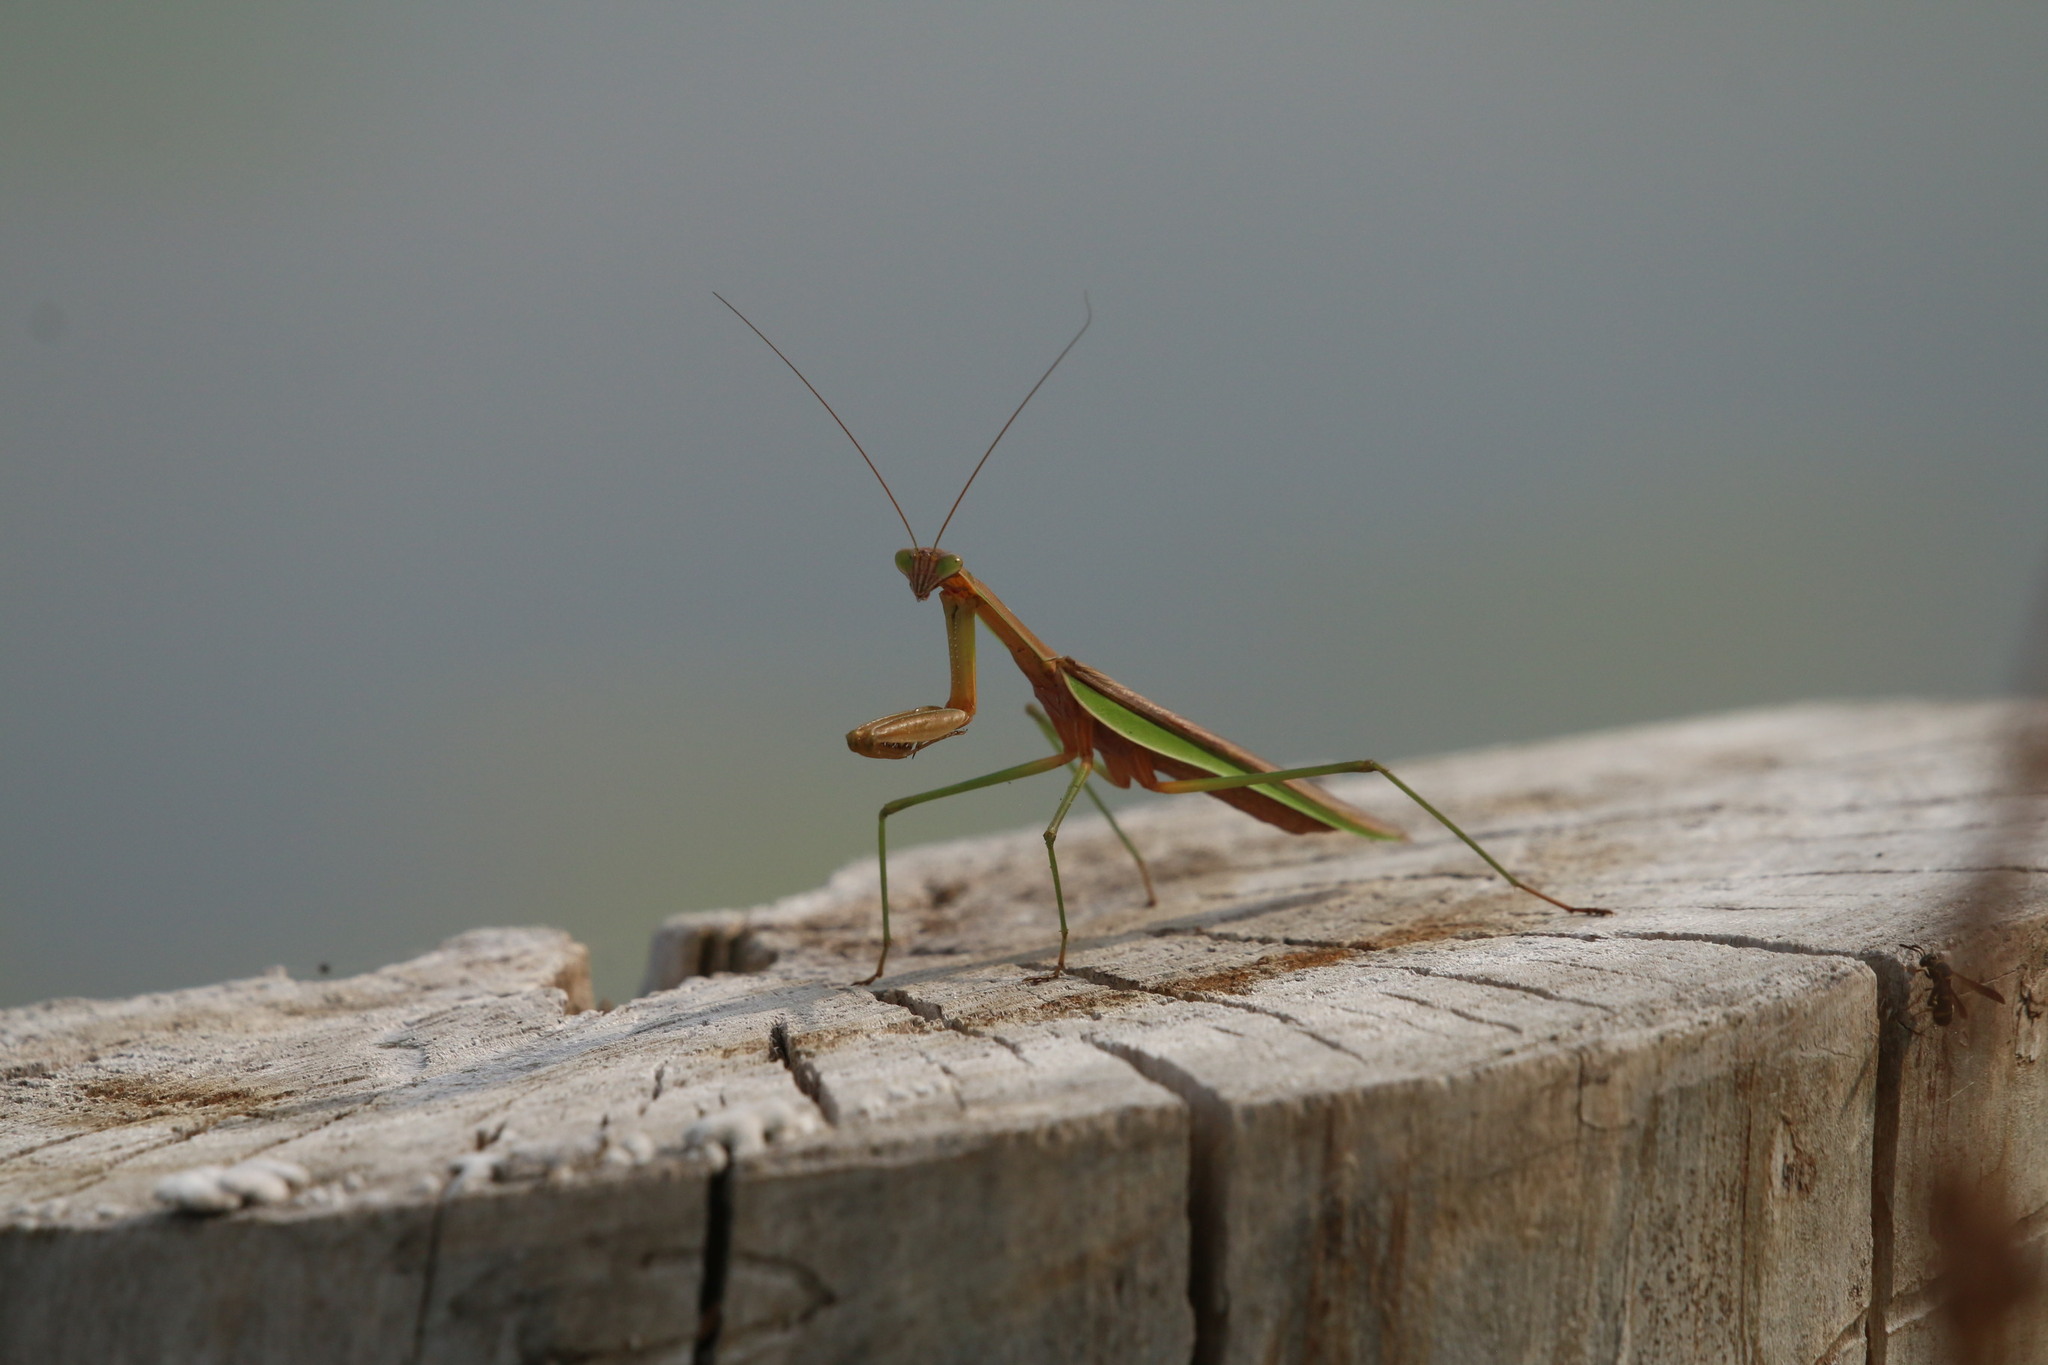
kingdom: Animalia
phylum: Arthropoda
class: Insecta
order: Mantodea
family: Mantidae
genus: Tenodera
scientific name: Tenodera sinensis
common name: Chinese mantis
